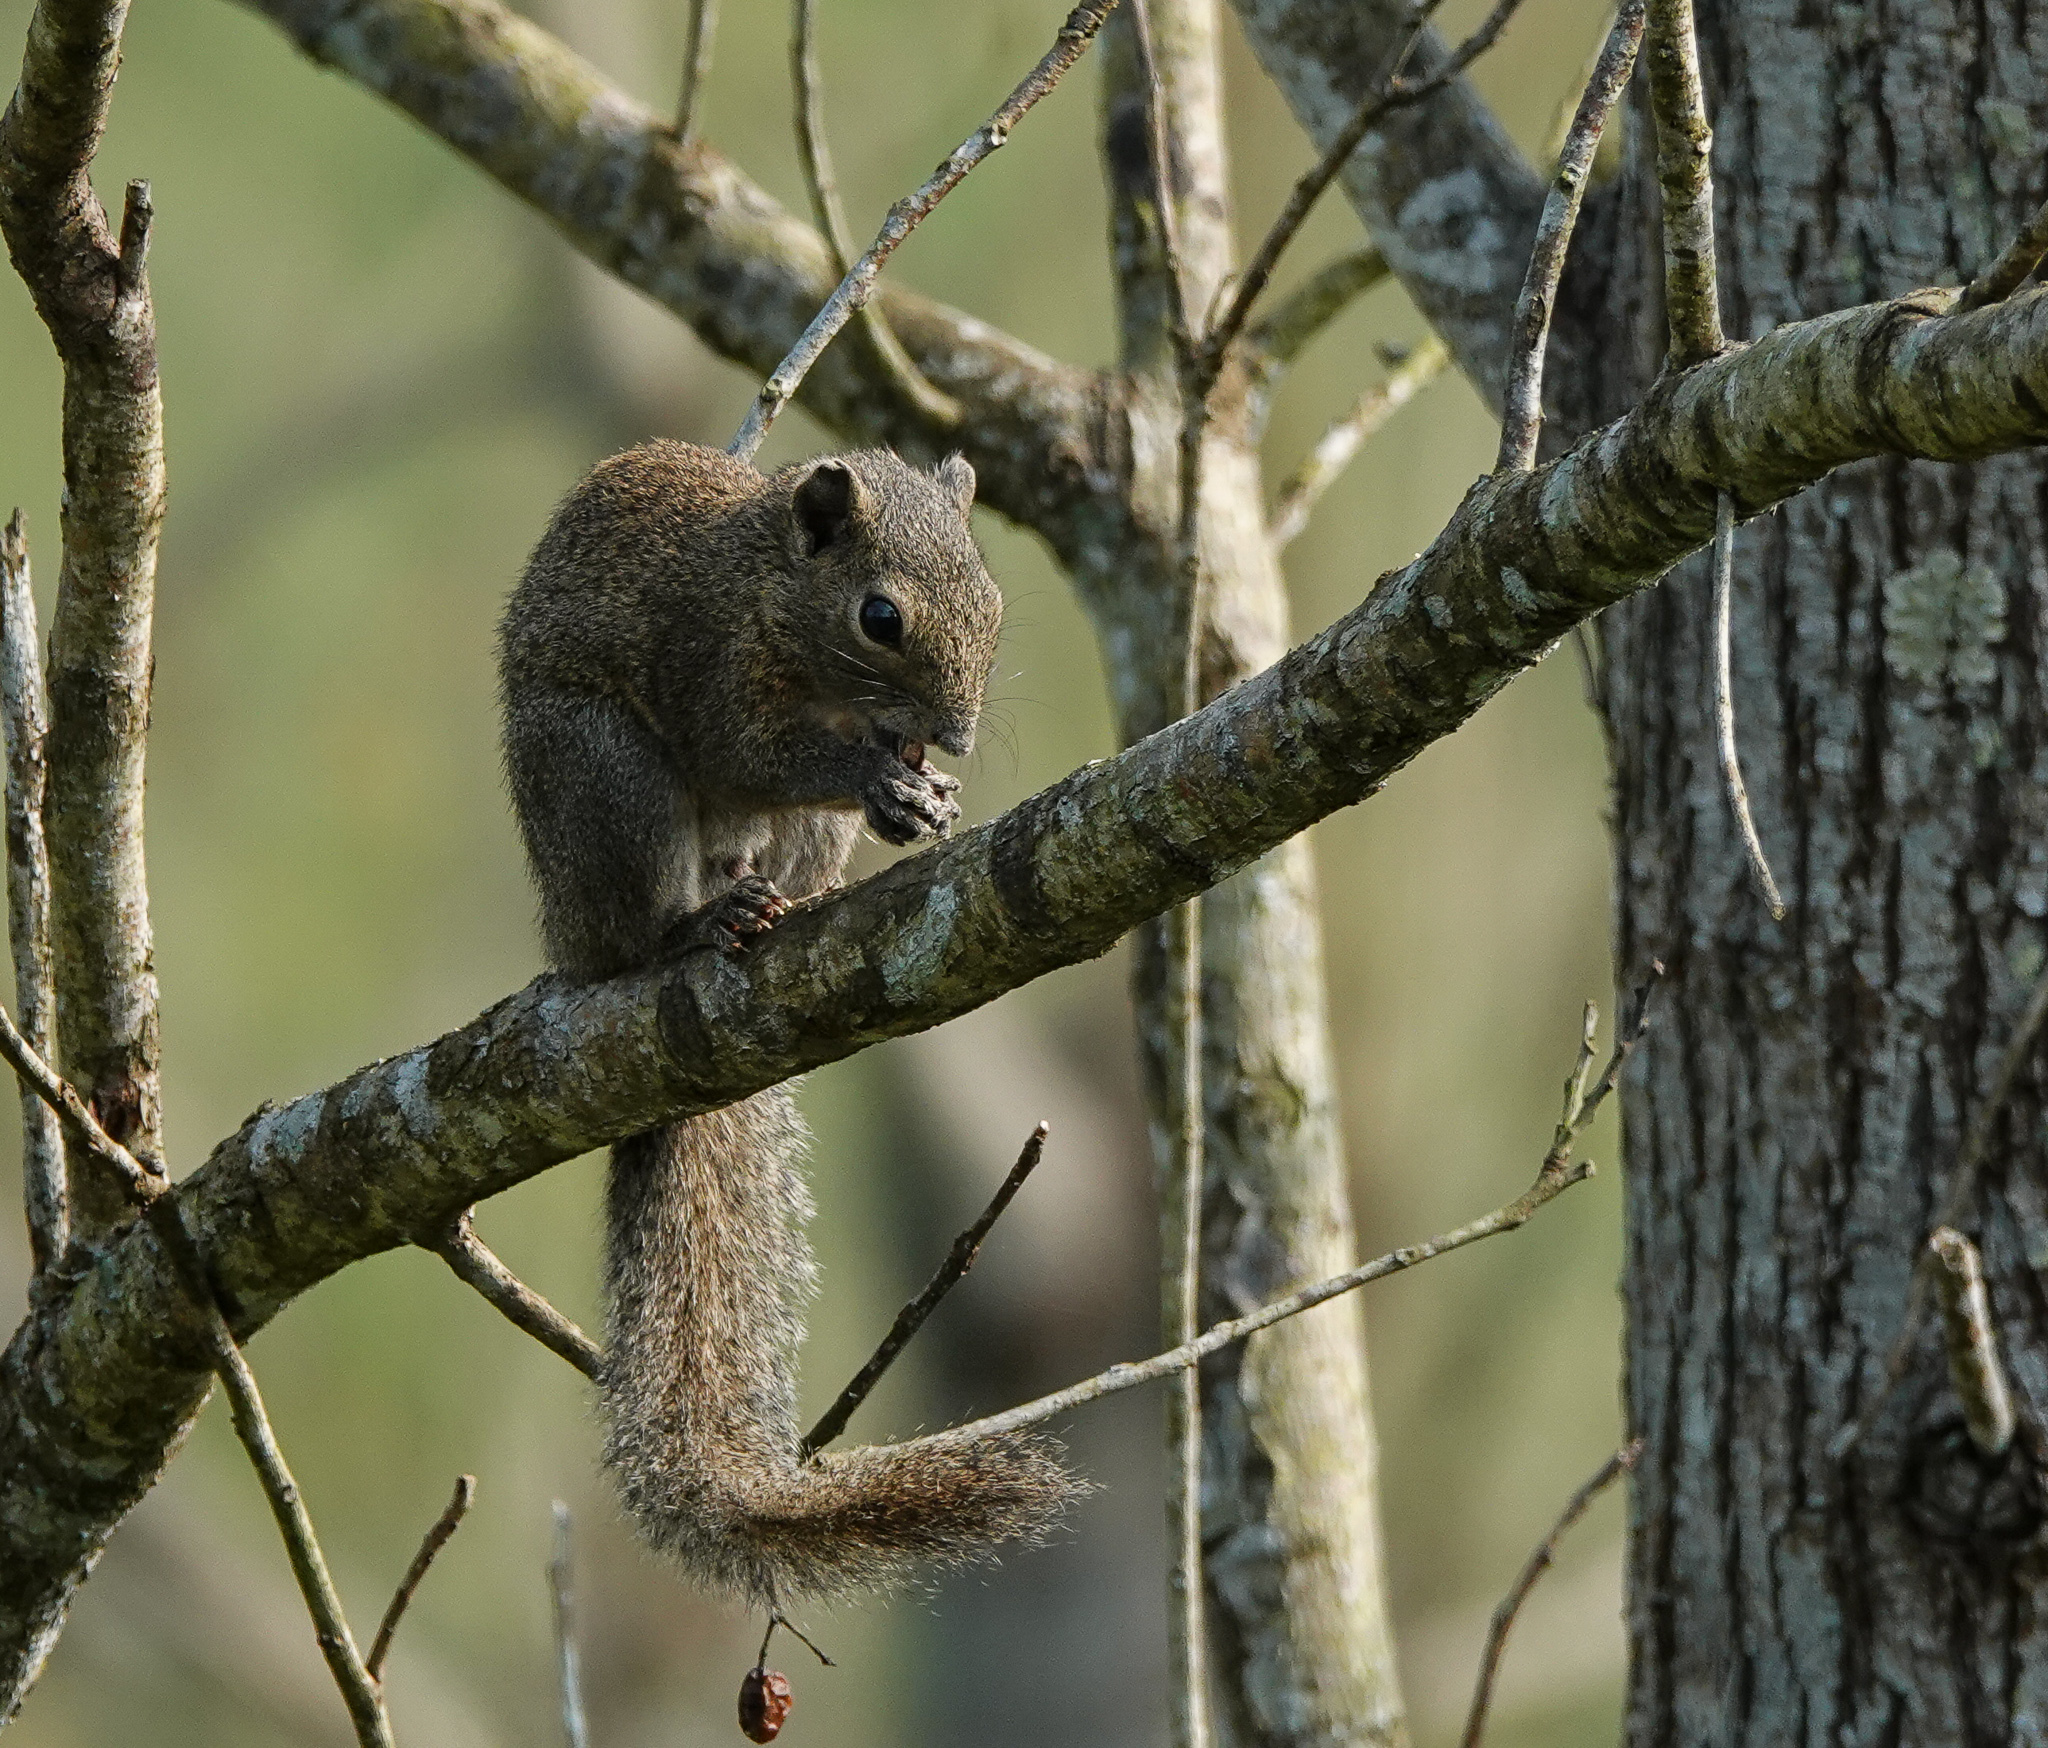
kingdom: Animalia
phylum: Chordata
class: Mammalia
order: Rodentia
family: Sciuridae
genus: Callosciurus
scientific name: Callosciurus pygerythrus
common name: Irrawaddy squirrel
